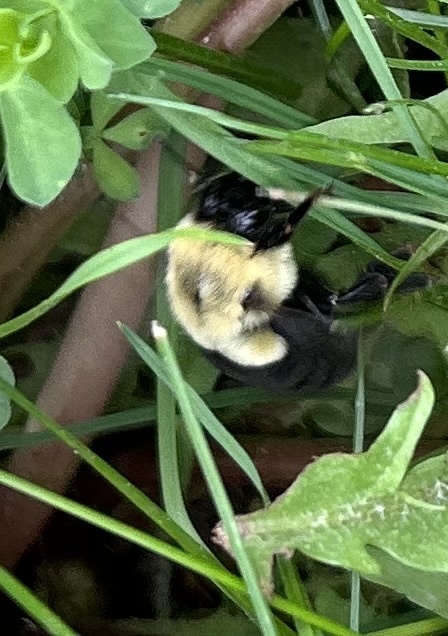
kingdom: Animalia
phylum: Arthropoda
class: Insecta
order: Hymenoptera
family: Apidae
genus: Bombus
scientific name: Bombus impatiens
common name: Common eastern bumble bee
